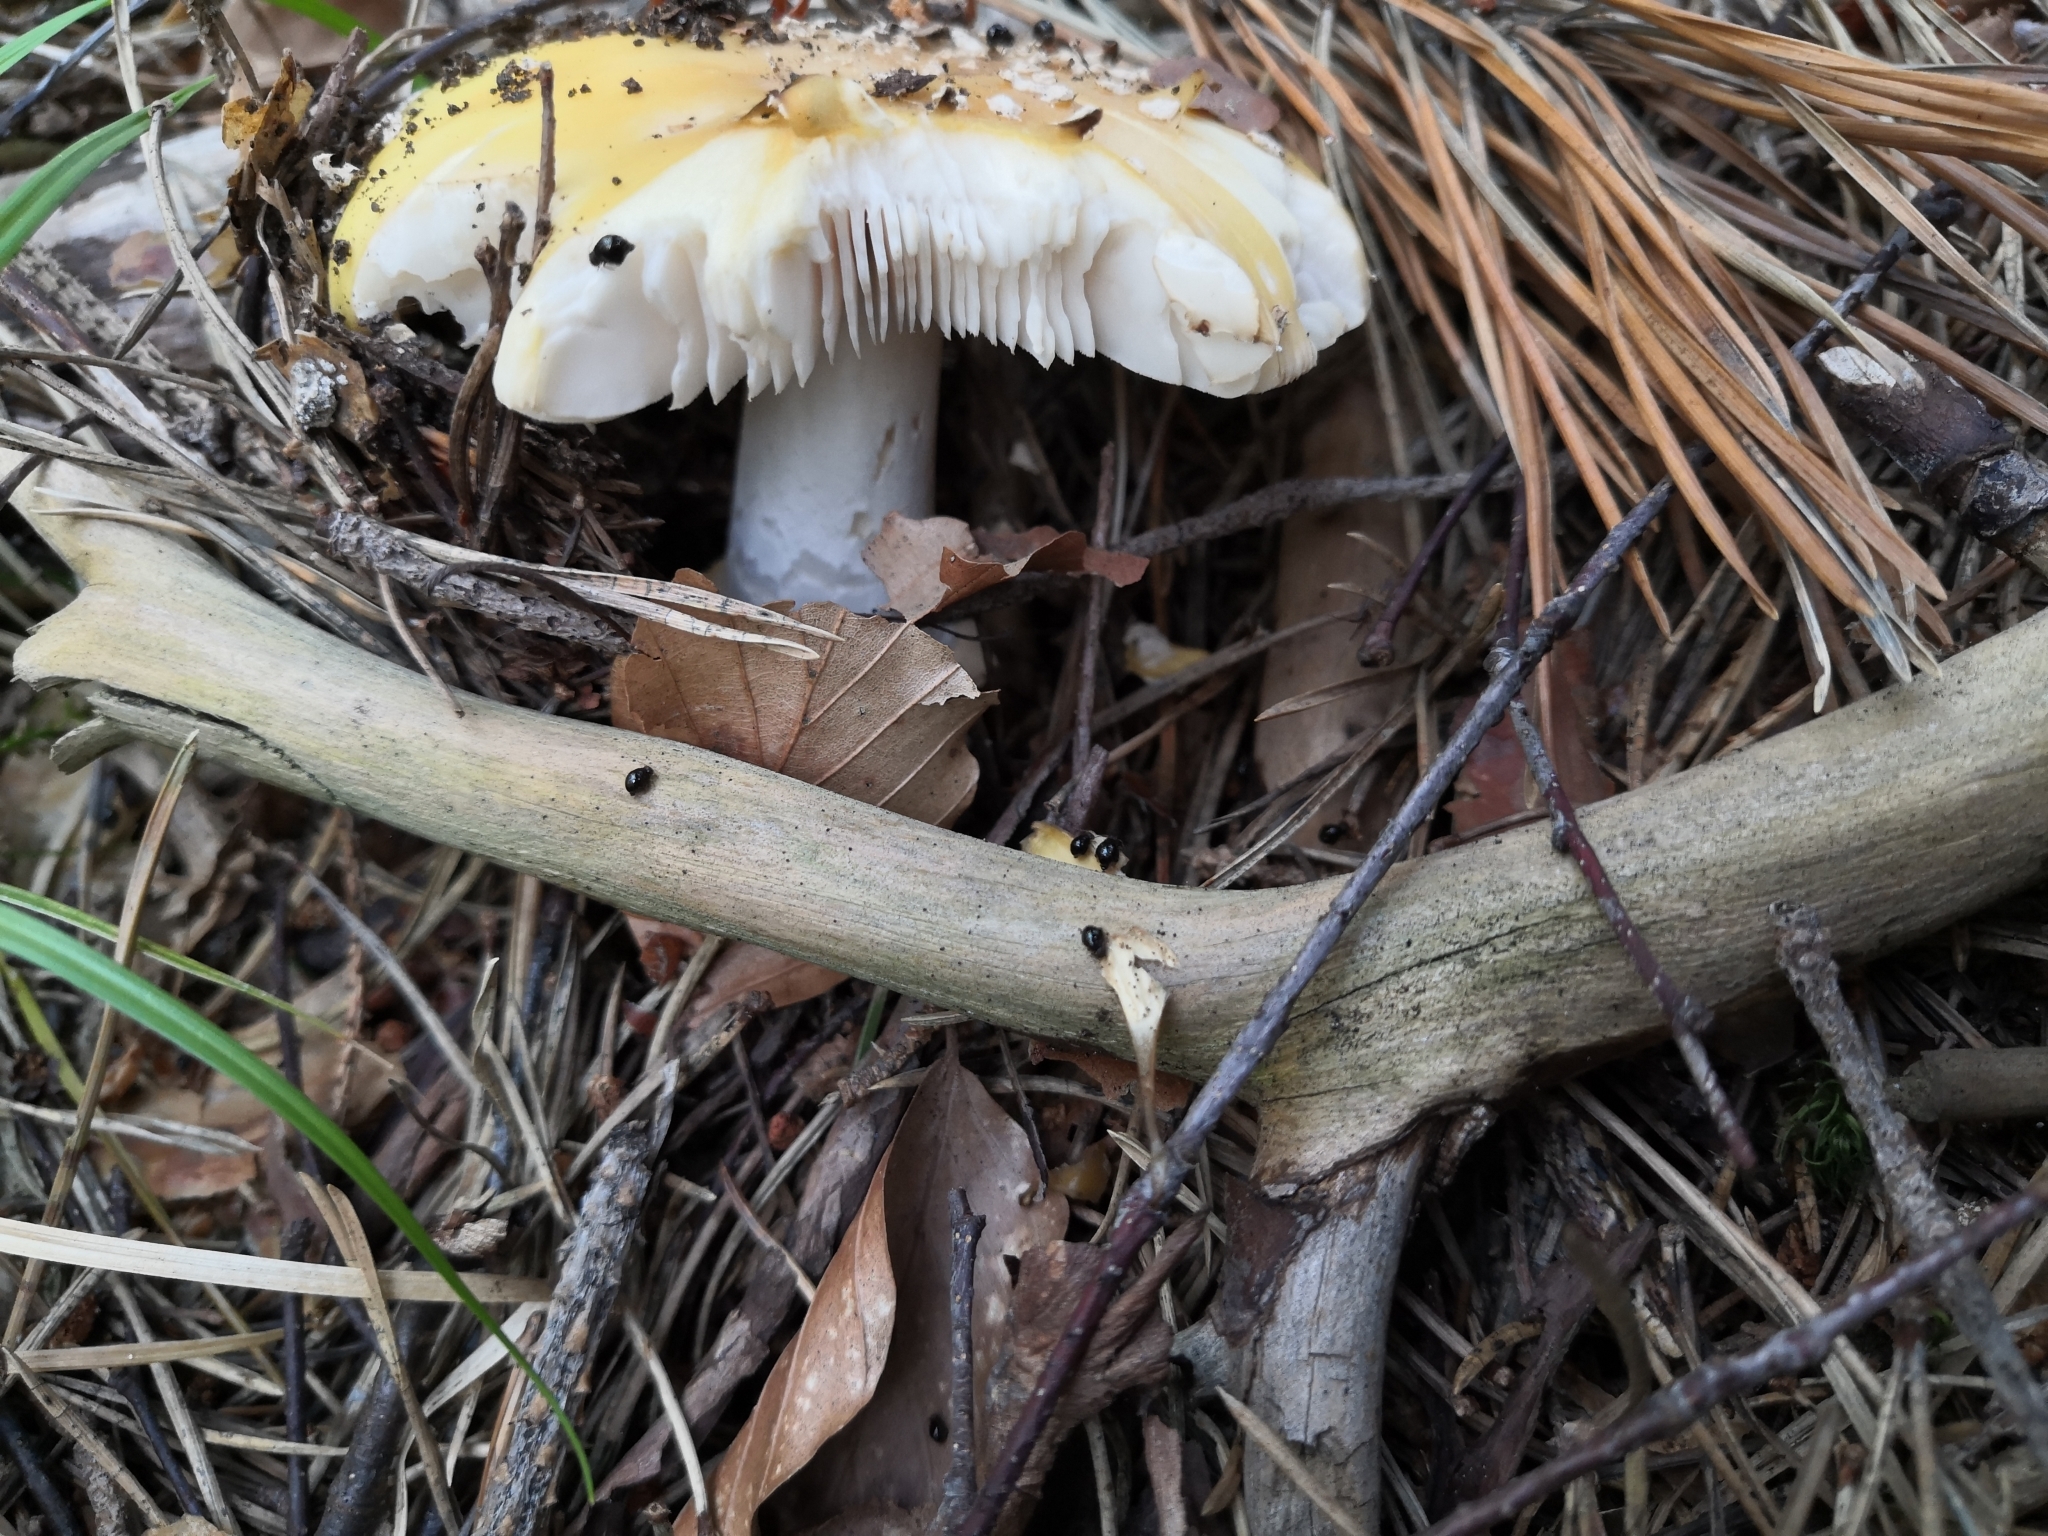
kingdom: Fungi
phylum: Basidiomycota
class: Agaricomycetes
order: Agaricales
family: Amanitaceae
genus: Amanita
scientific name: Amanita gemmata
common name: Jewelled amanita
